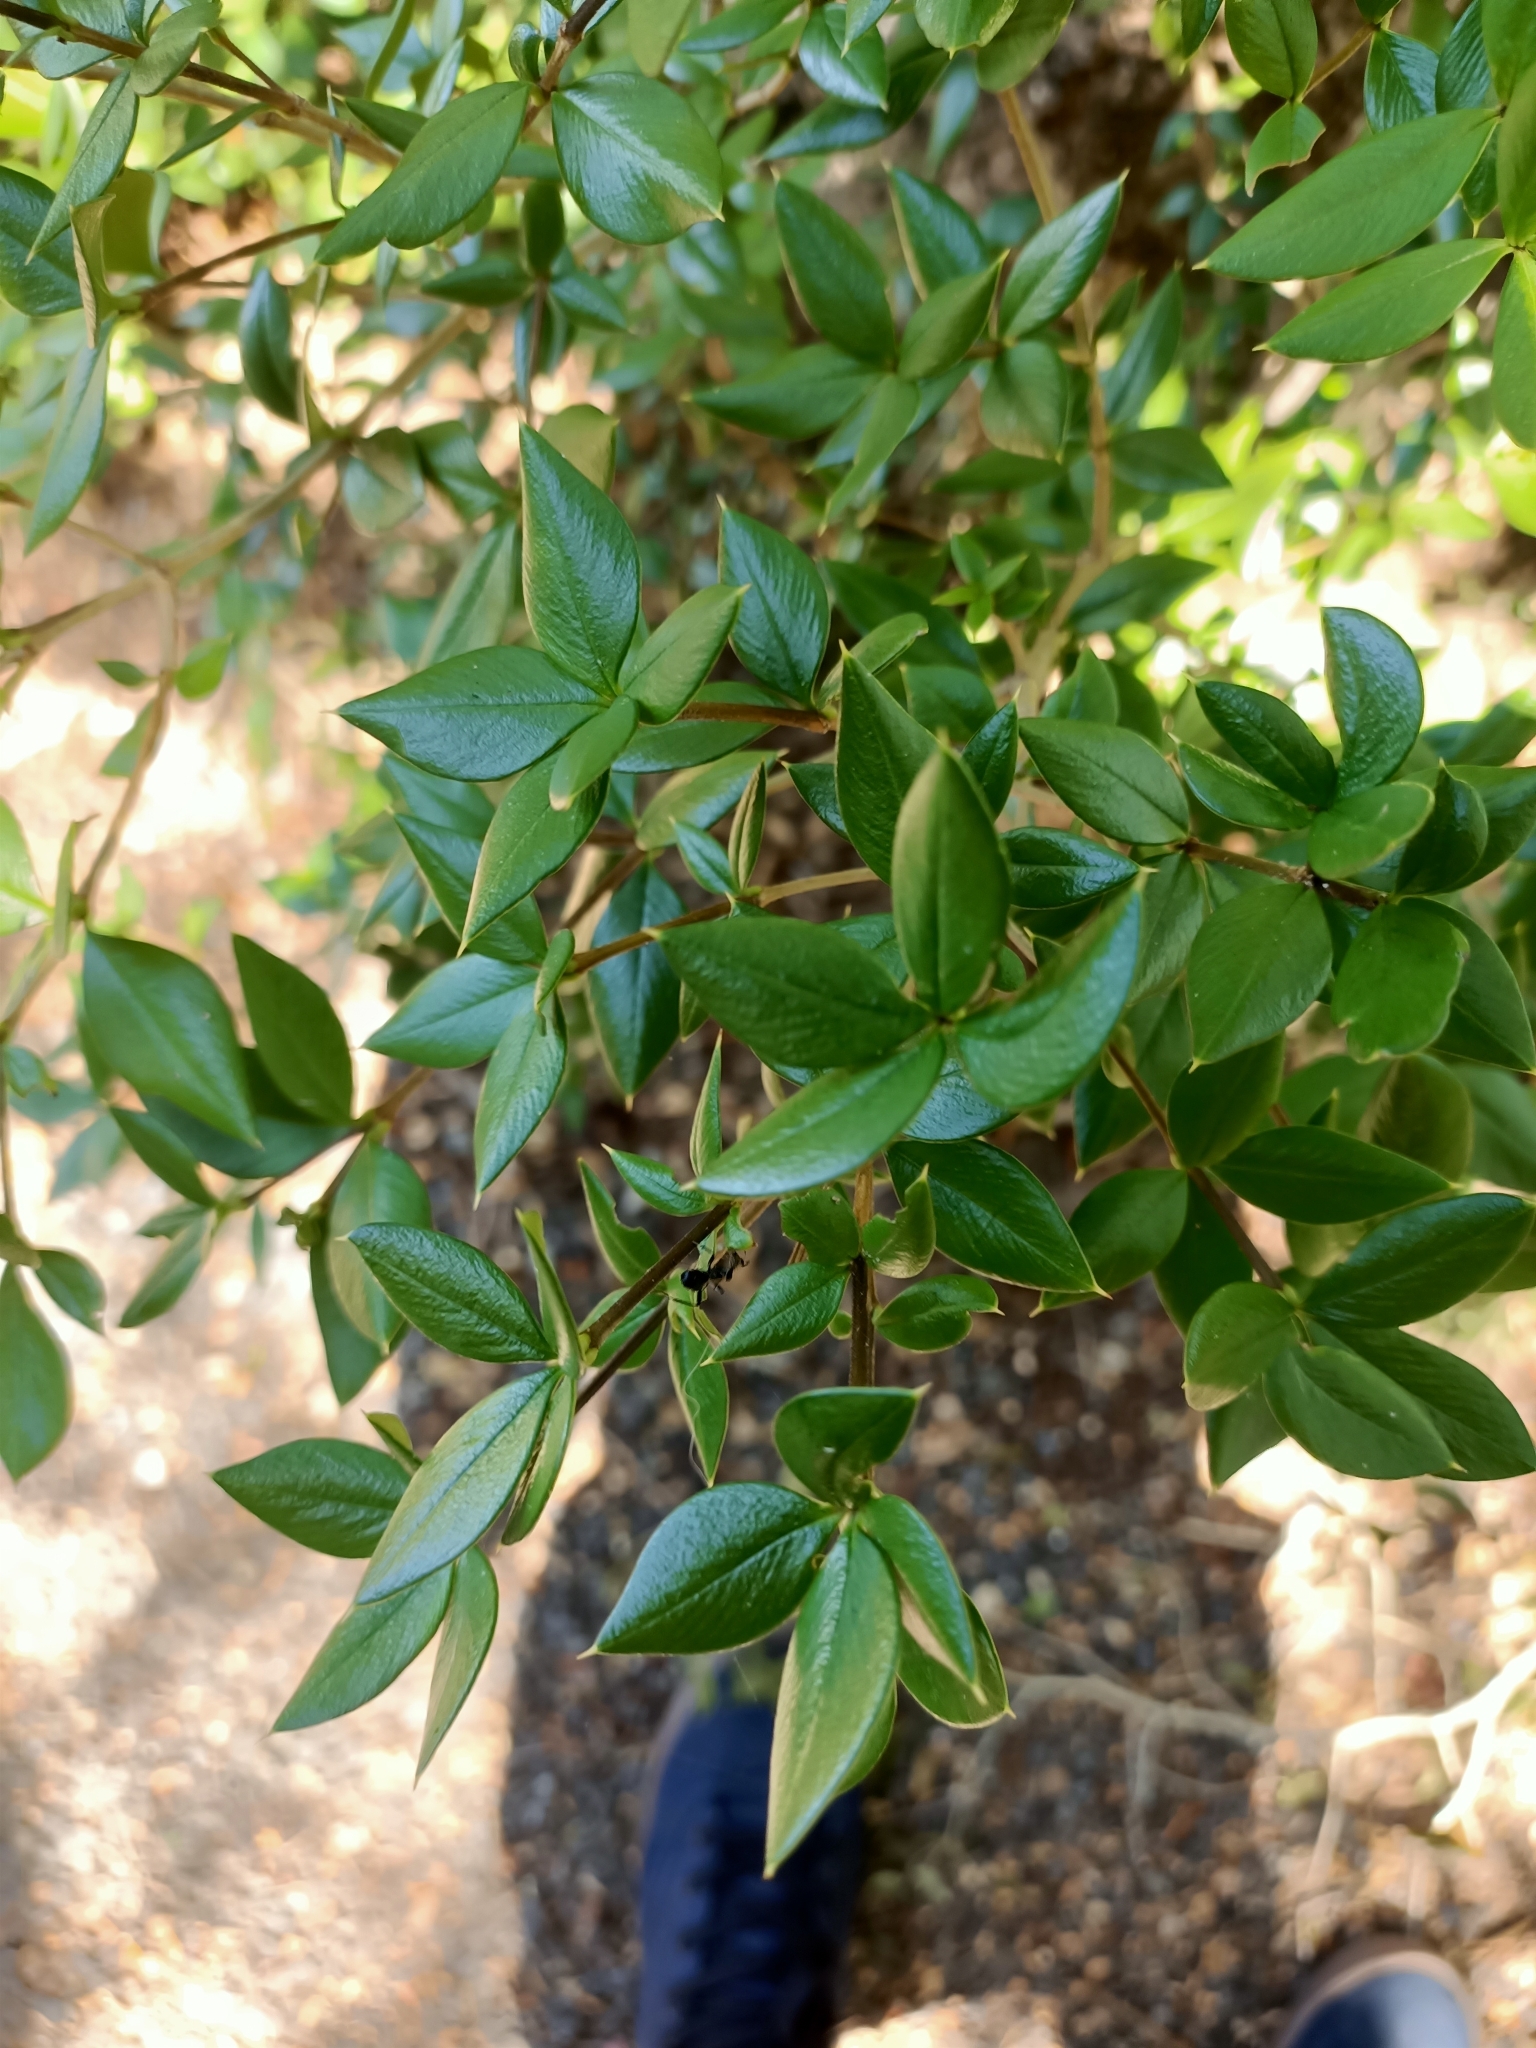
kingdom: Plantae
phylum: Tracheophyta
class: Magnoliopsida
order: Gentianales
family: Apocynaceae
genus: Alyxia
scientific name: Alyxia ruscifolia
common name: Chainfruit
